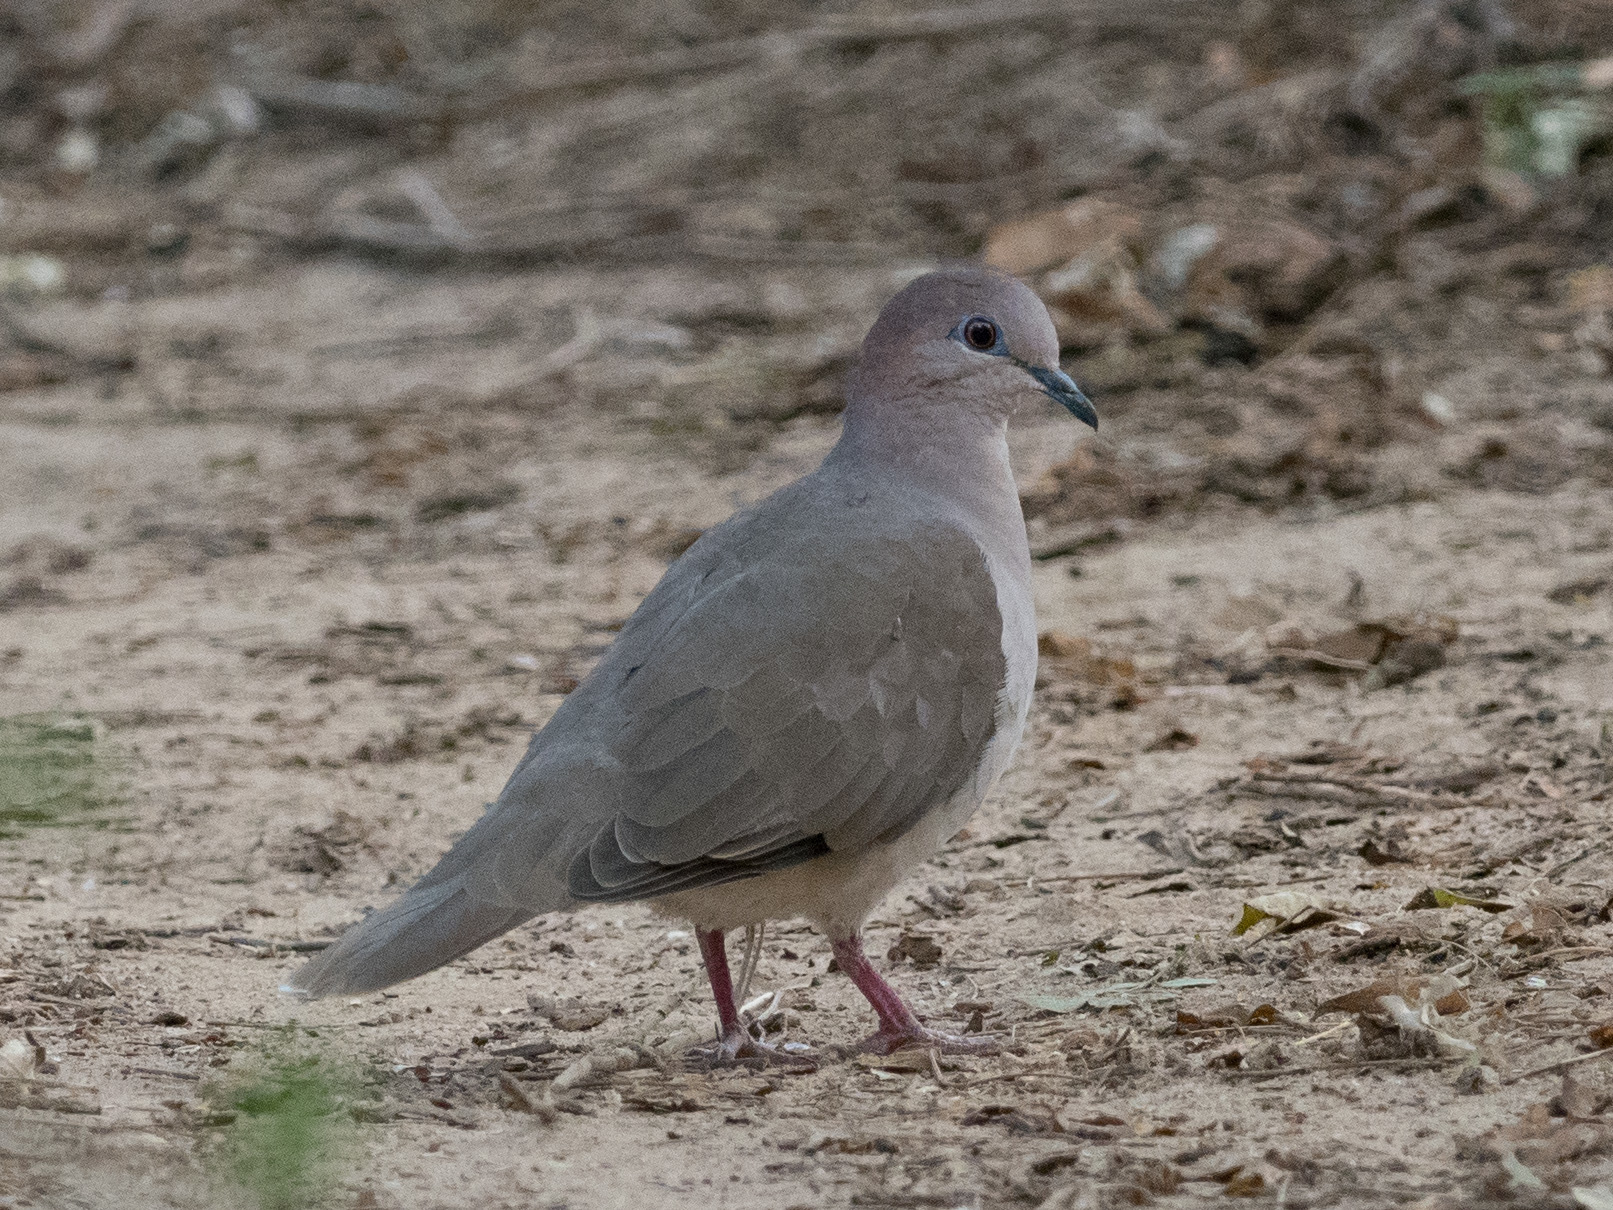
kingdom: Animalia
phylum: Chordata
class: Aves
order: Columbiformes
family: Columbidae
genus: Leptotila
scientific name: Leptotila verreauxi
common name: White-tipped dove
